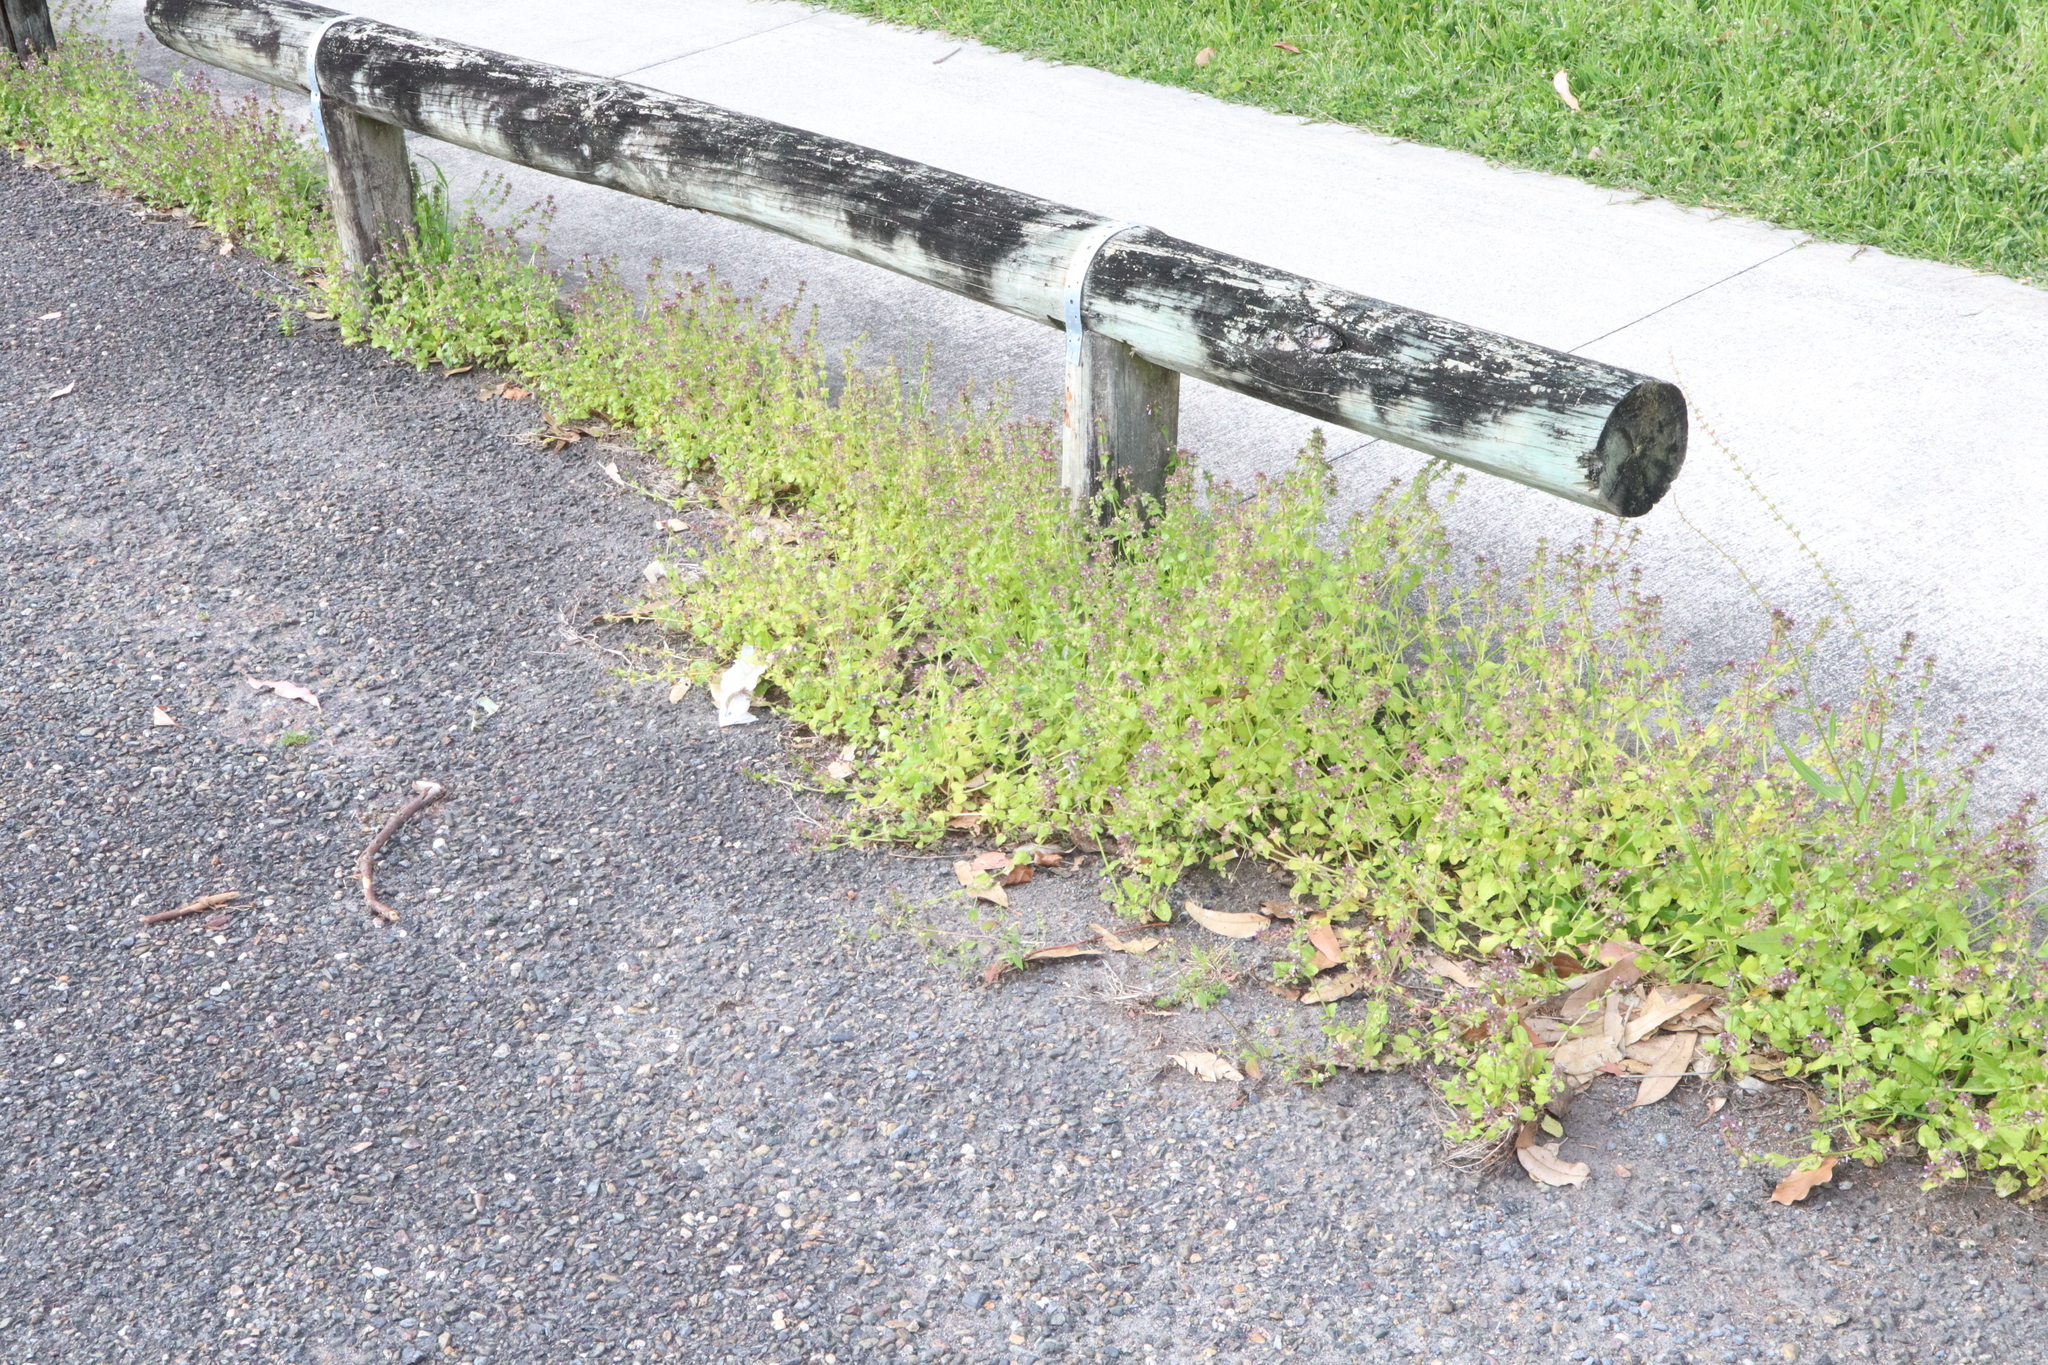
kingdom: Plantae
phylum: Tracheophyta
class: Magnoliopsida
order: Lamiales
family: Lamiaceae
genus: Stachys
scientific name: Stachys arvensis
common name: Field woundwort
